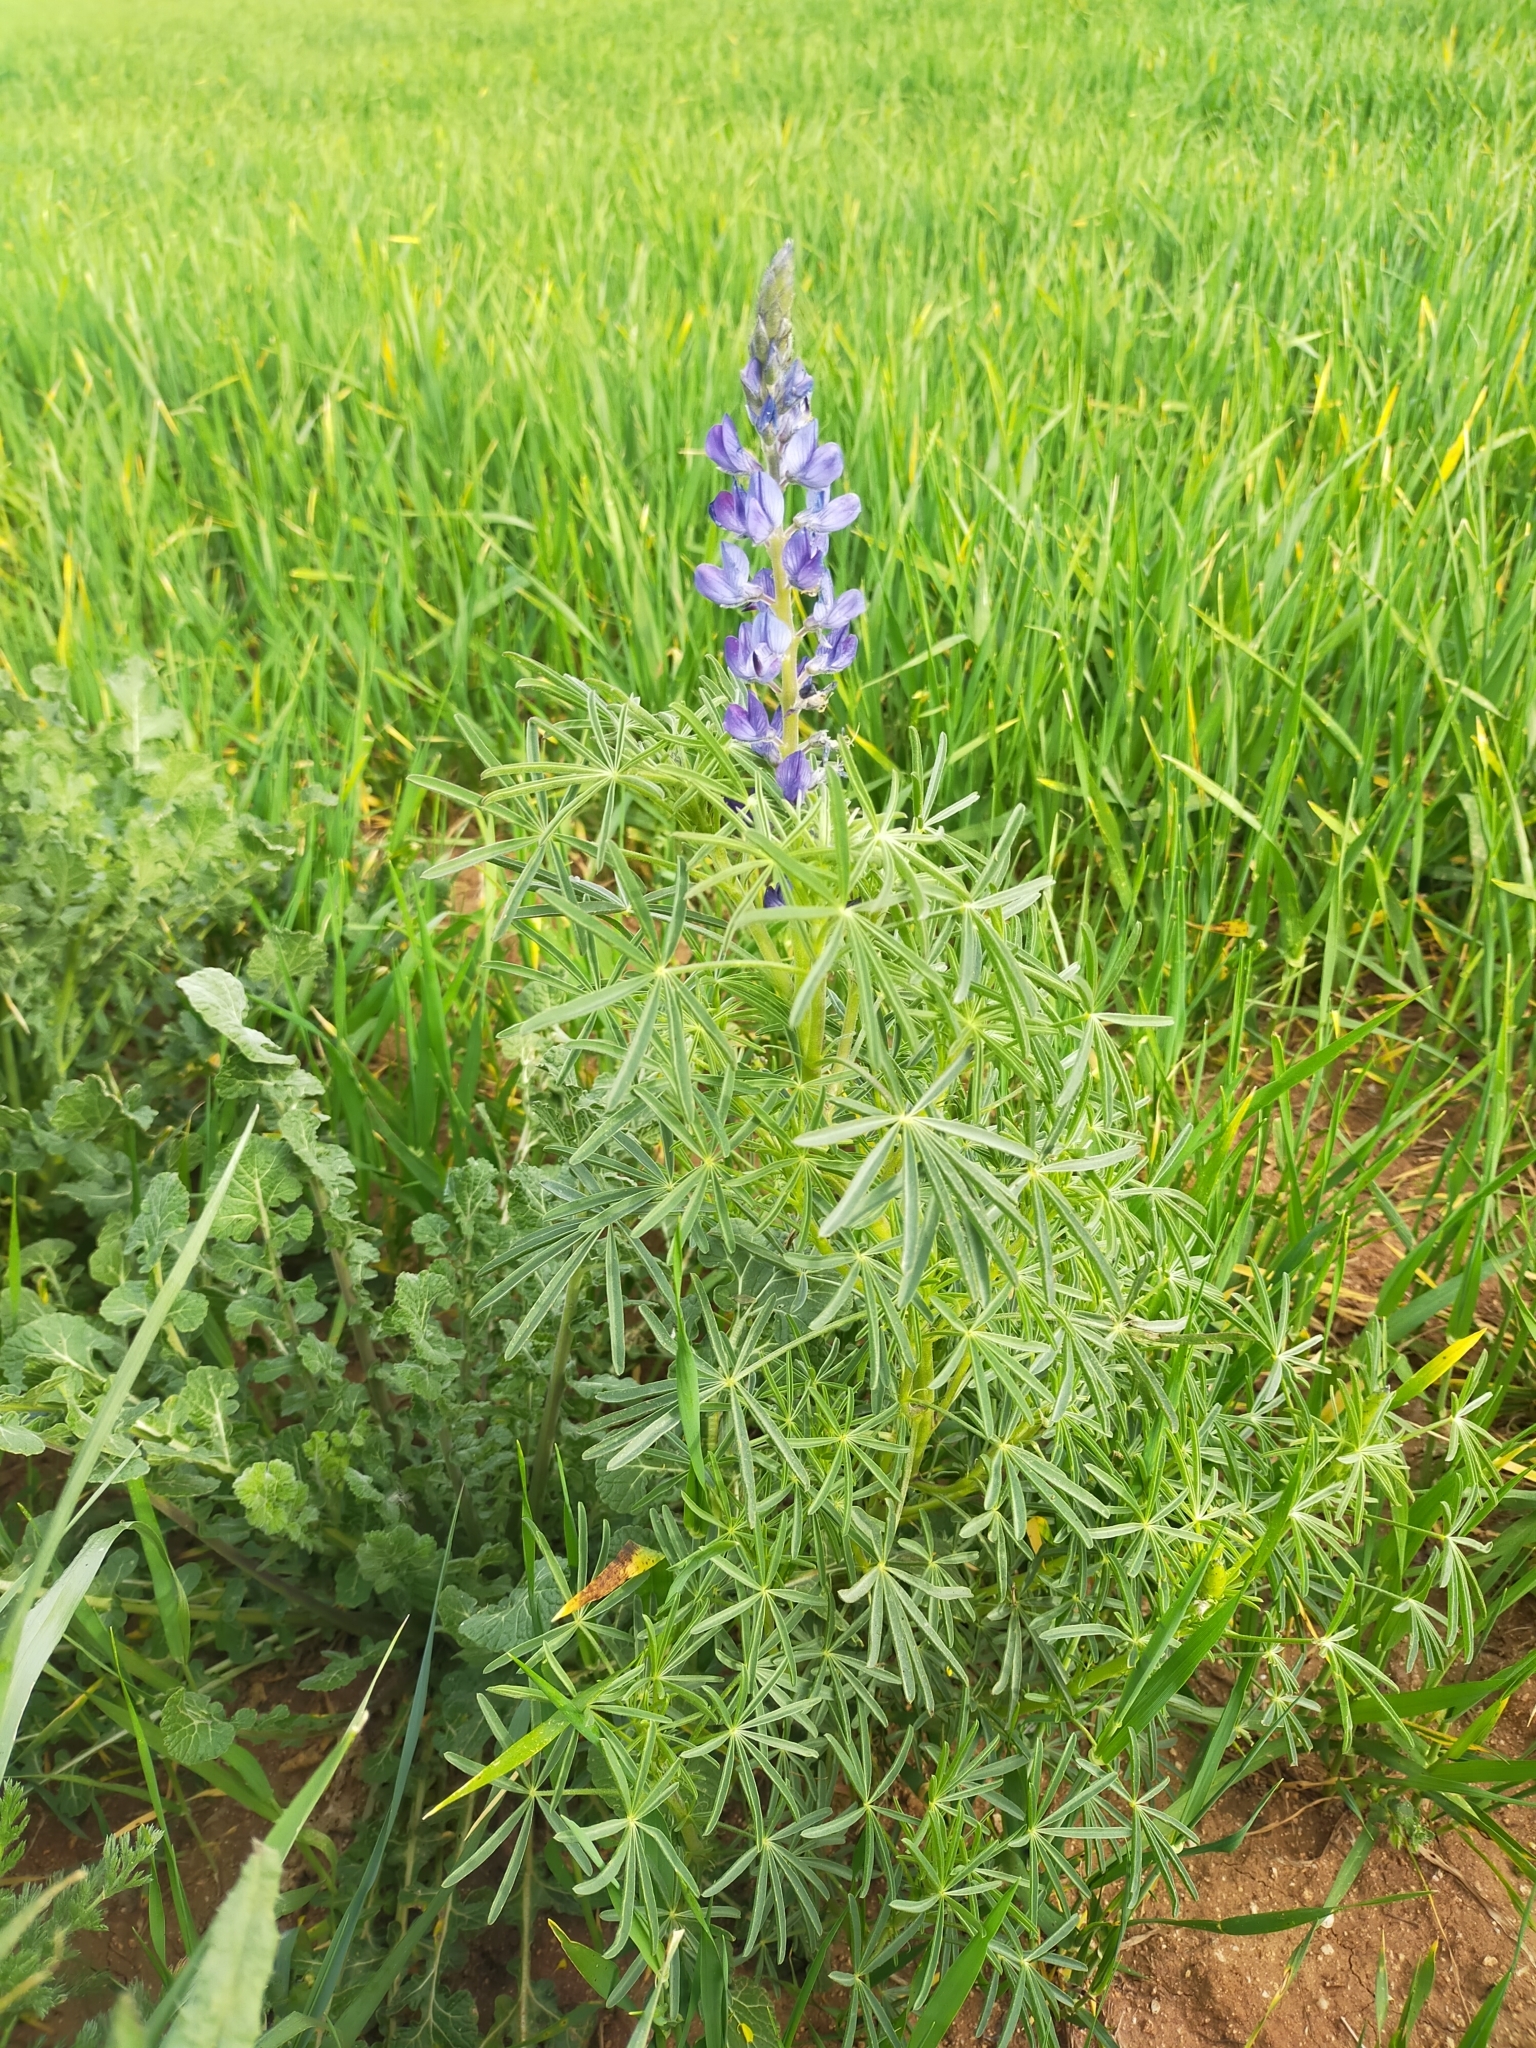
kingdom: Plantae
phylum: Tracheophyta
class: Magnoliopsida
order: Fabales
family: Fabaceae
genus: Lupinus
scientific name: Lupinus angustifolius
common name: Narrow-leaved lupin
